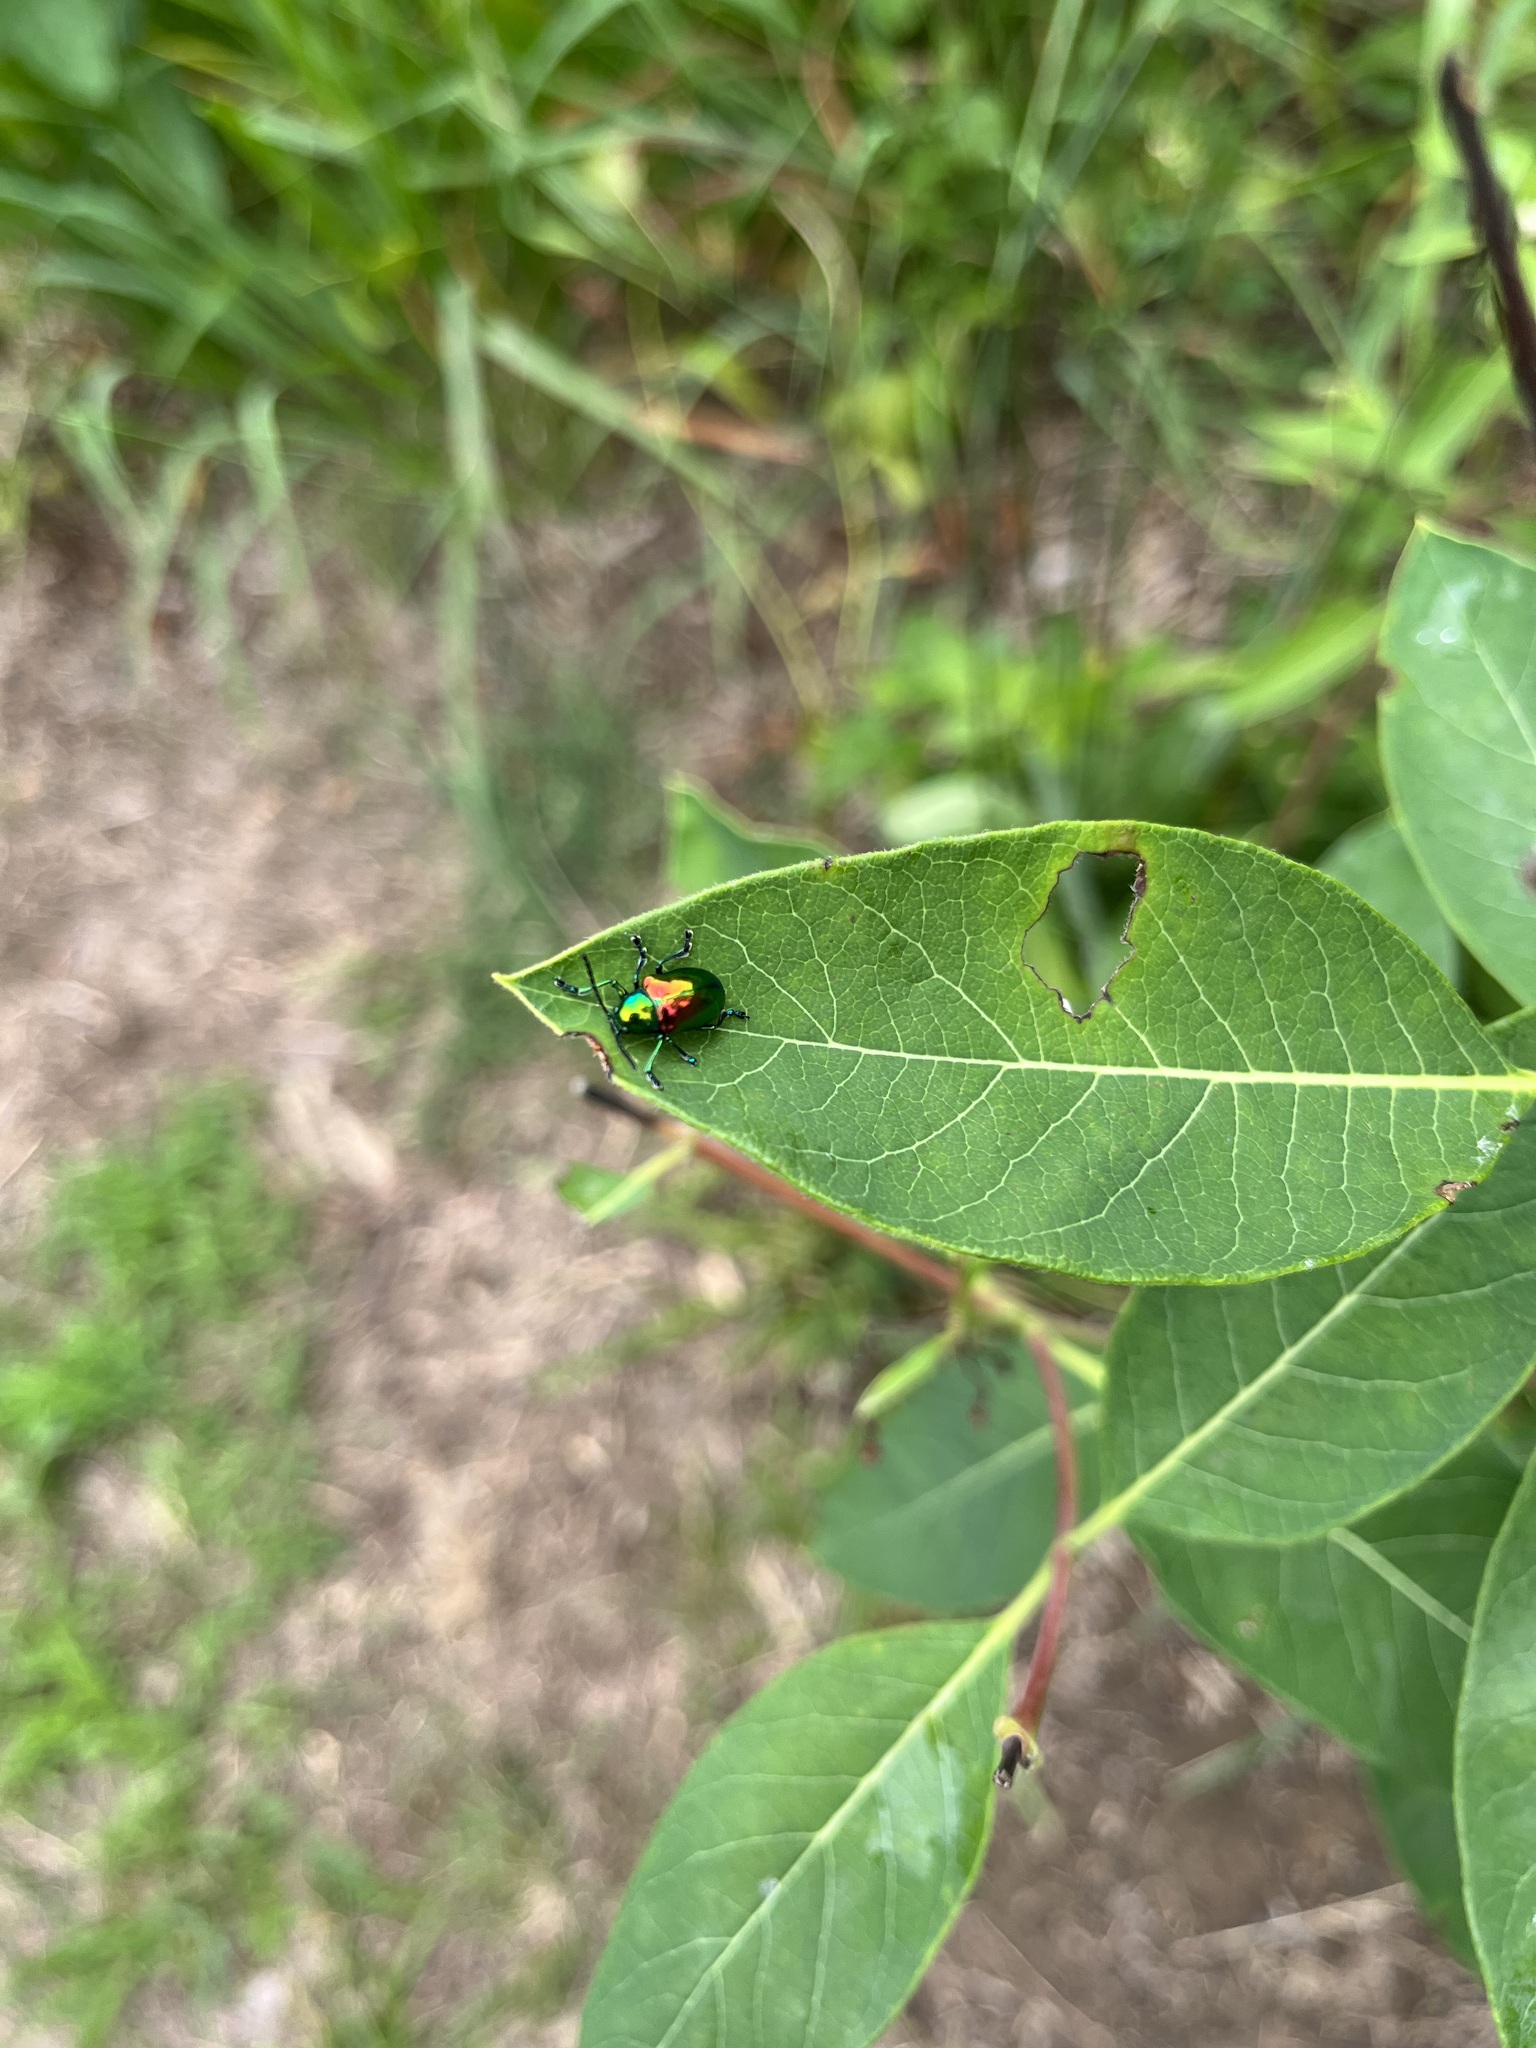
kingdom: Animalia
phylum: Arthropoda
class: Insecta
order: Coleoptera
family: Chrysomelidae
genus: Chrysochus
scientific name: Chrysochus auratus
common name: Dogbane leaf beetle
